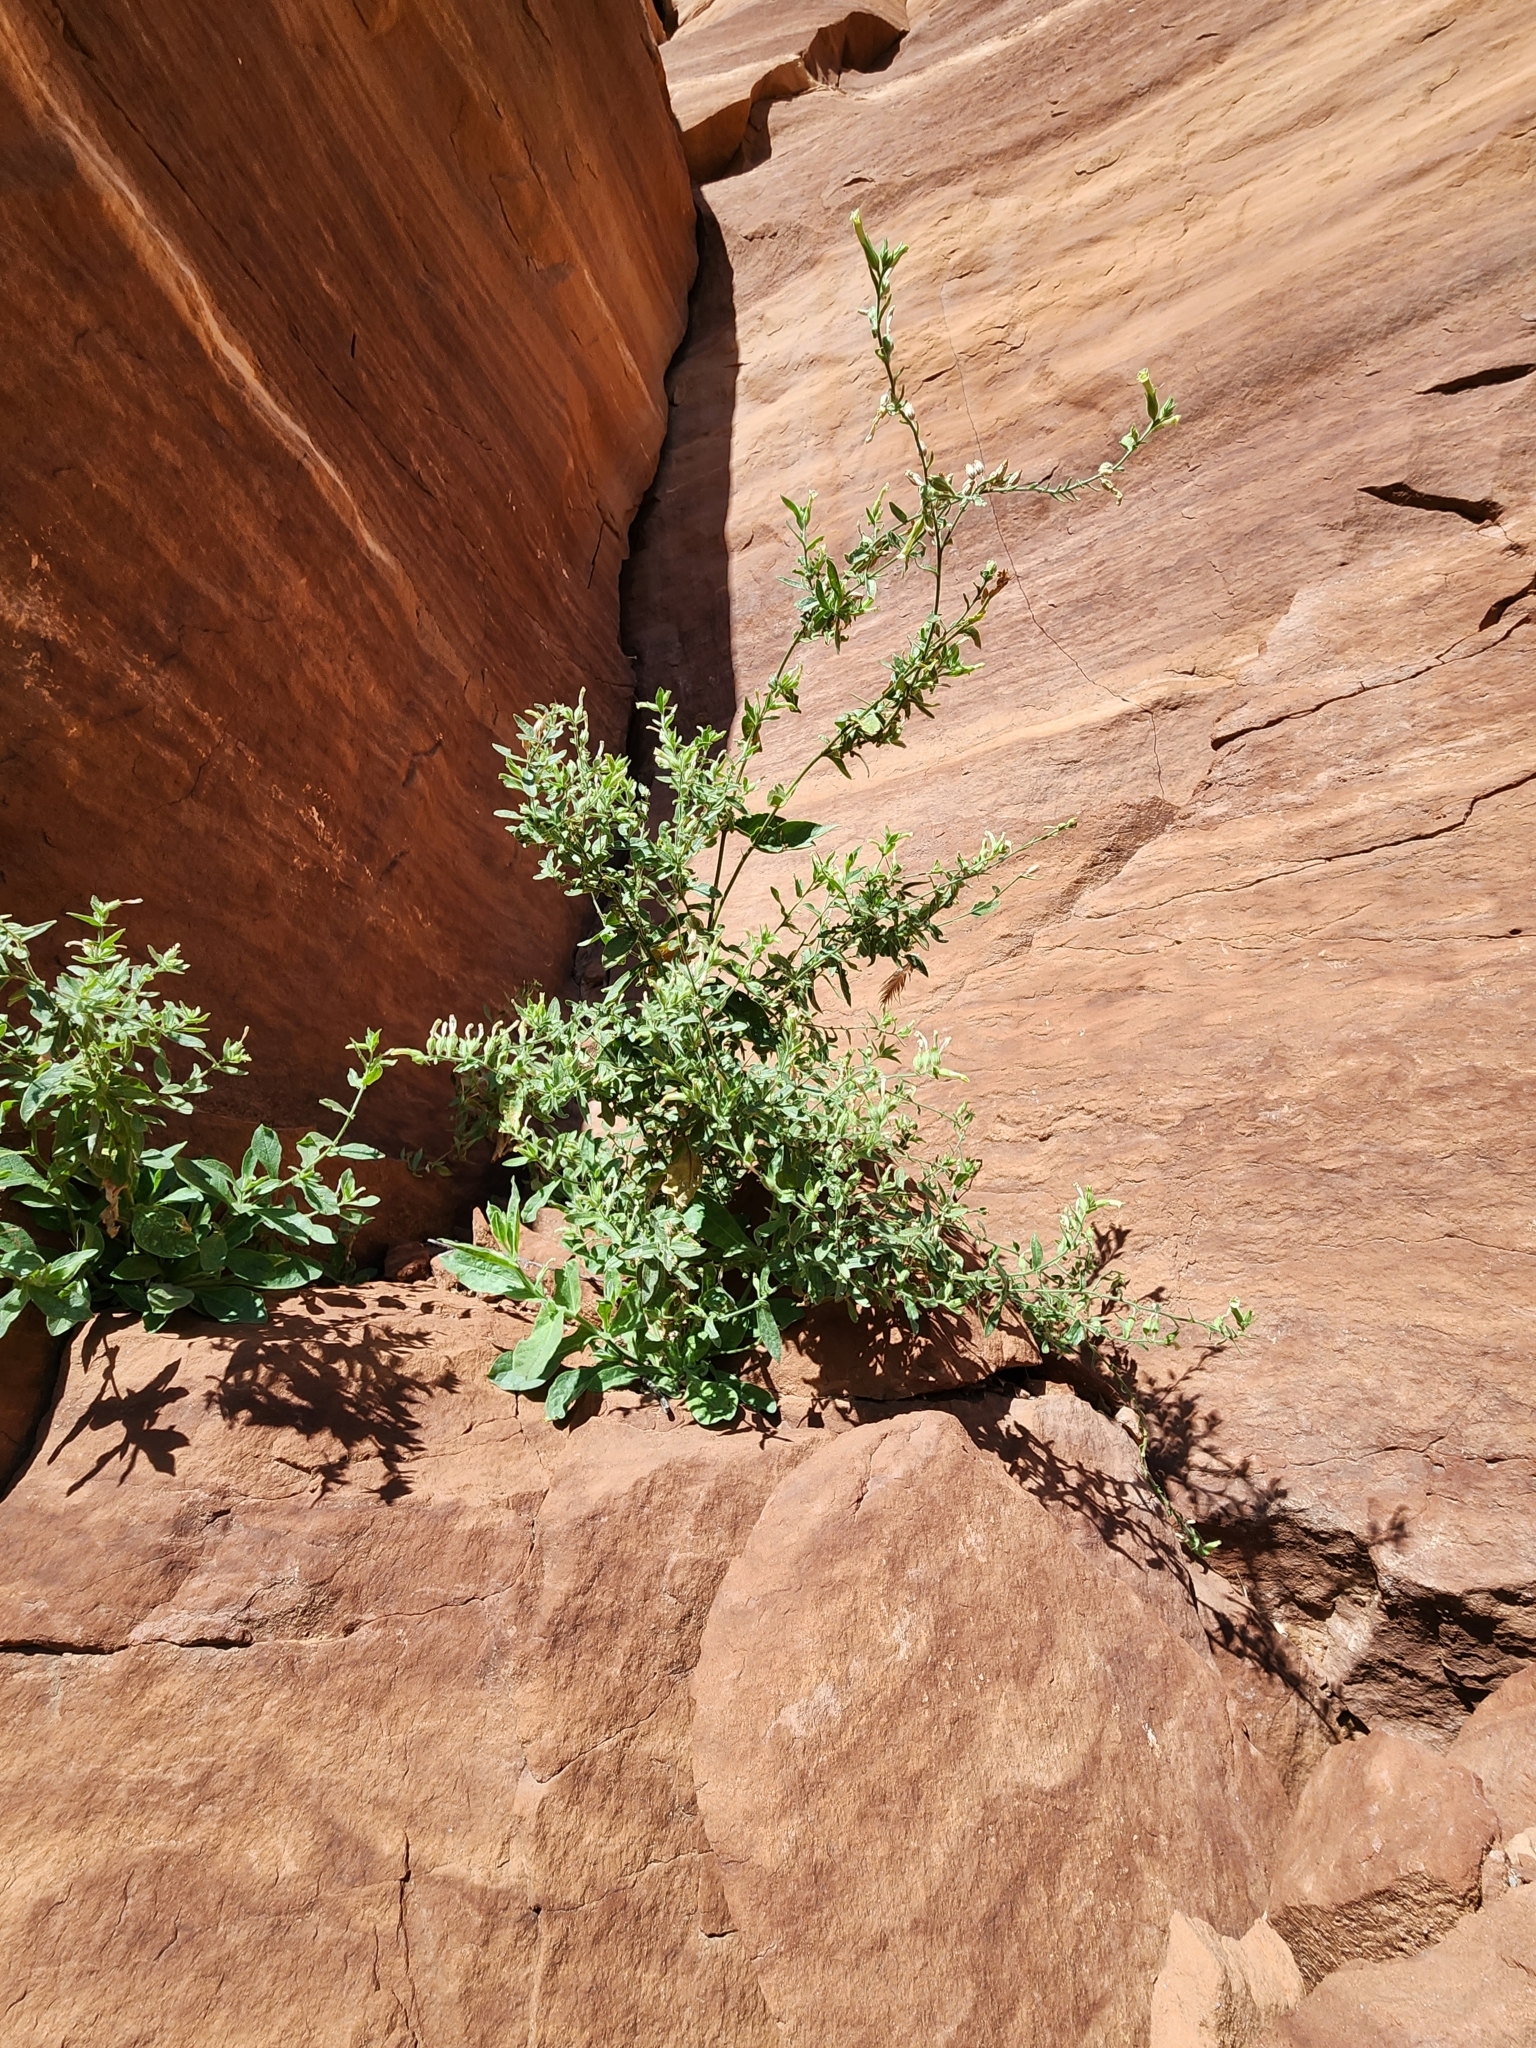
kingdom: Plantae
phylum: Tracheophyta
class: Magnoliopsida
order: Solanales
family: Solanaceae
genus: Nicotiana
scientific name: Nicotiana obtusifolia
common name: Desert tobacco
